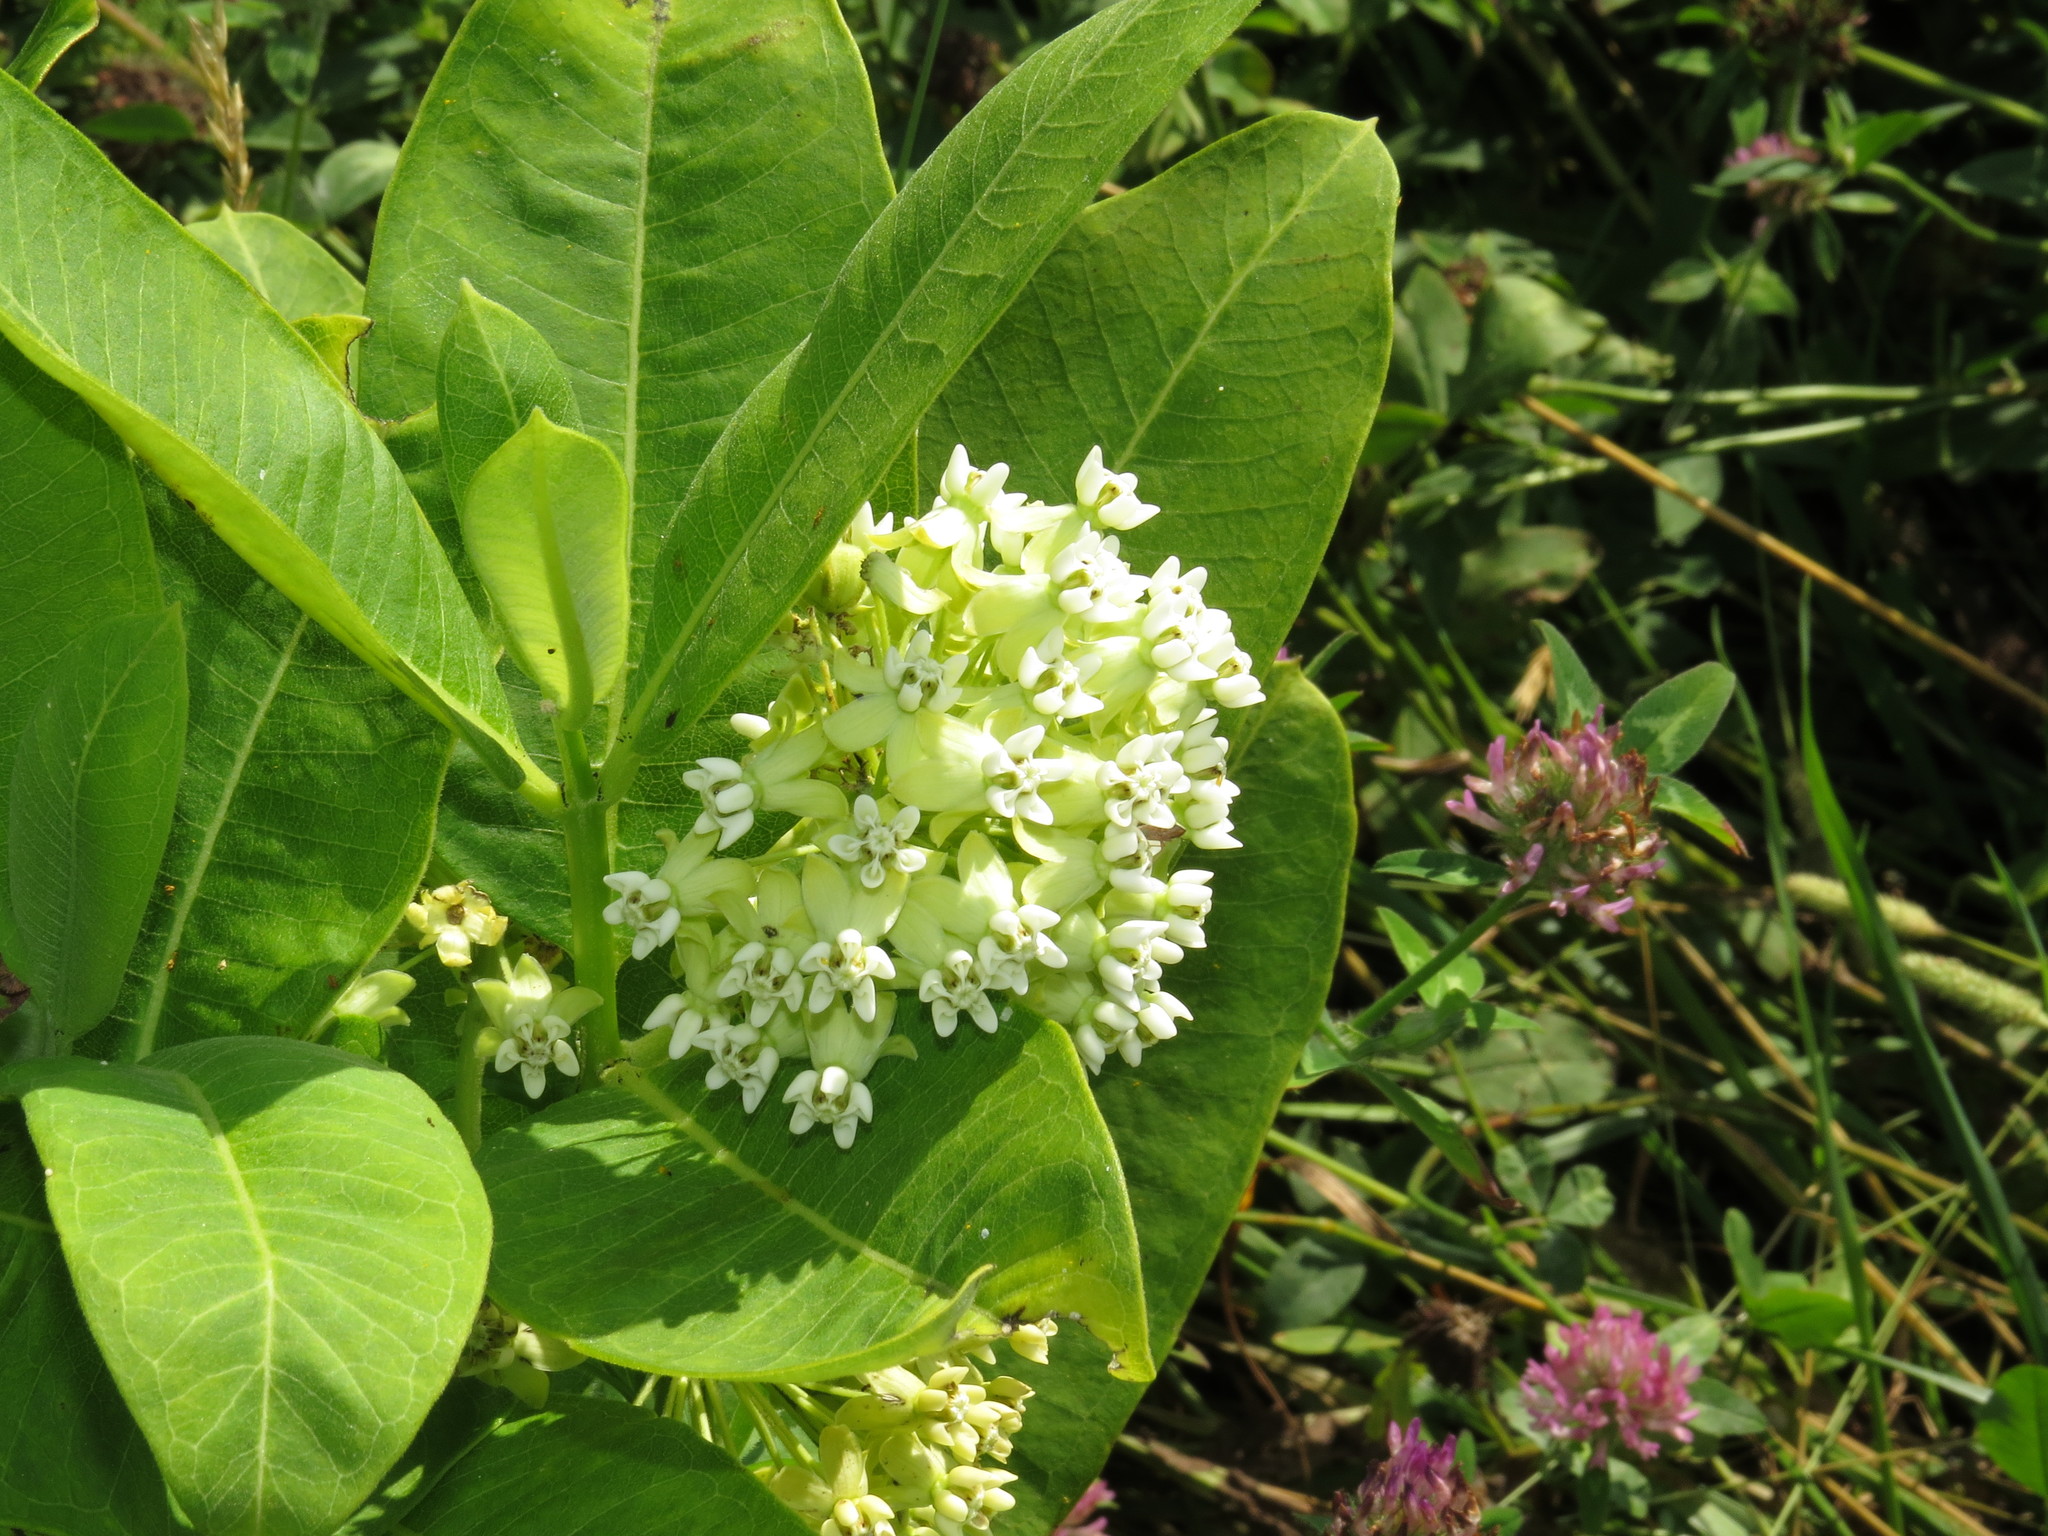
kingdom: Plantae
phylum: Tracheophyta
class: Magnoliopsida
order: Gentianales
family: Apocynaceae
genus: Asclepias
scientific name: Asclepias syriaca
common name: Common milkweed
